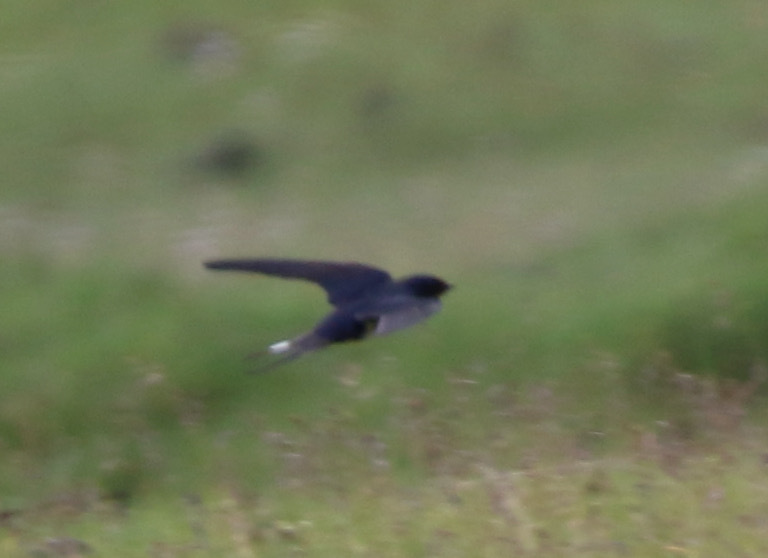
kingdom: Animalia
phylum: Chordata
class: Aves
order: Passeriformes
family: Hirundinidae
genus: Hirundo
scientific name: Hirundo rustica
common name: Barn swallow
